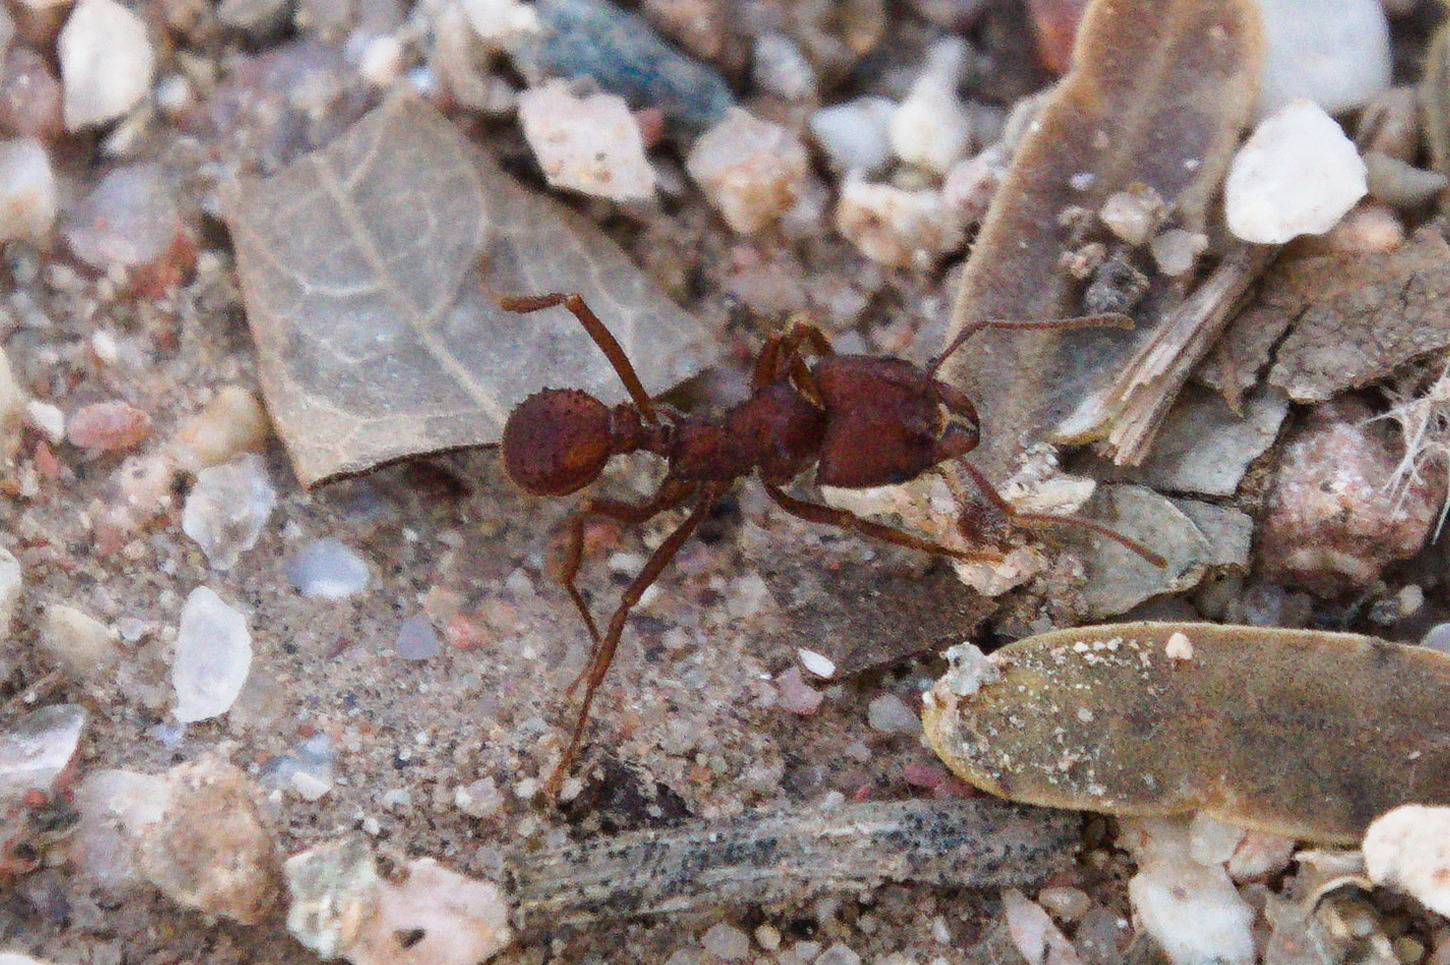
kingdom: Animalia
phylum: Arthropoda
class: Insecta
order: Hymenoptera
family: Formicidae
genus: Acromyrmex
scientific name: Acromyrmex versicolor
